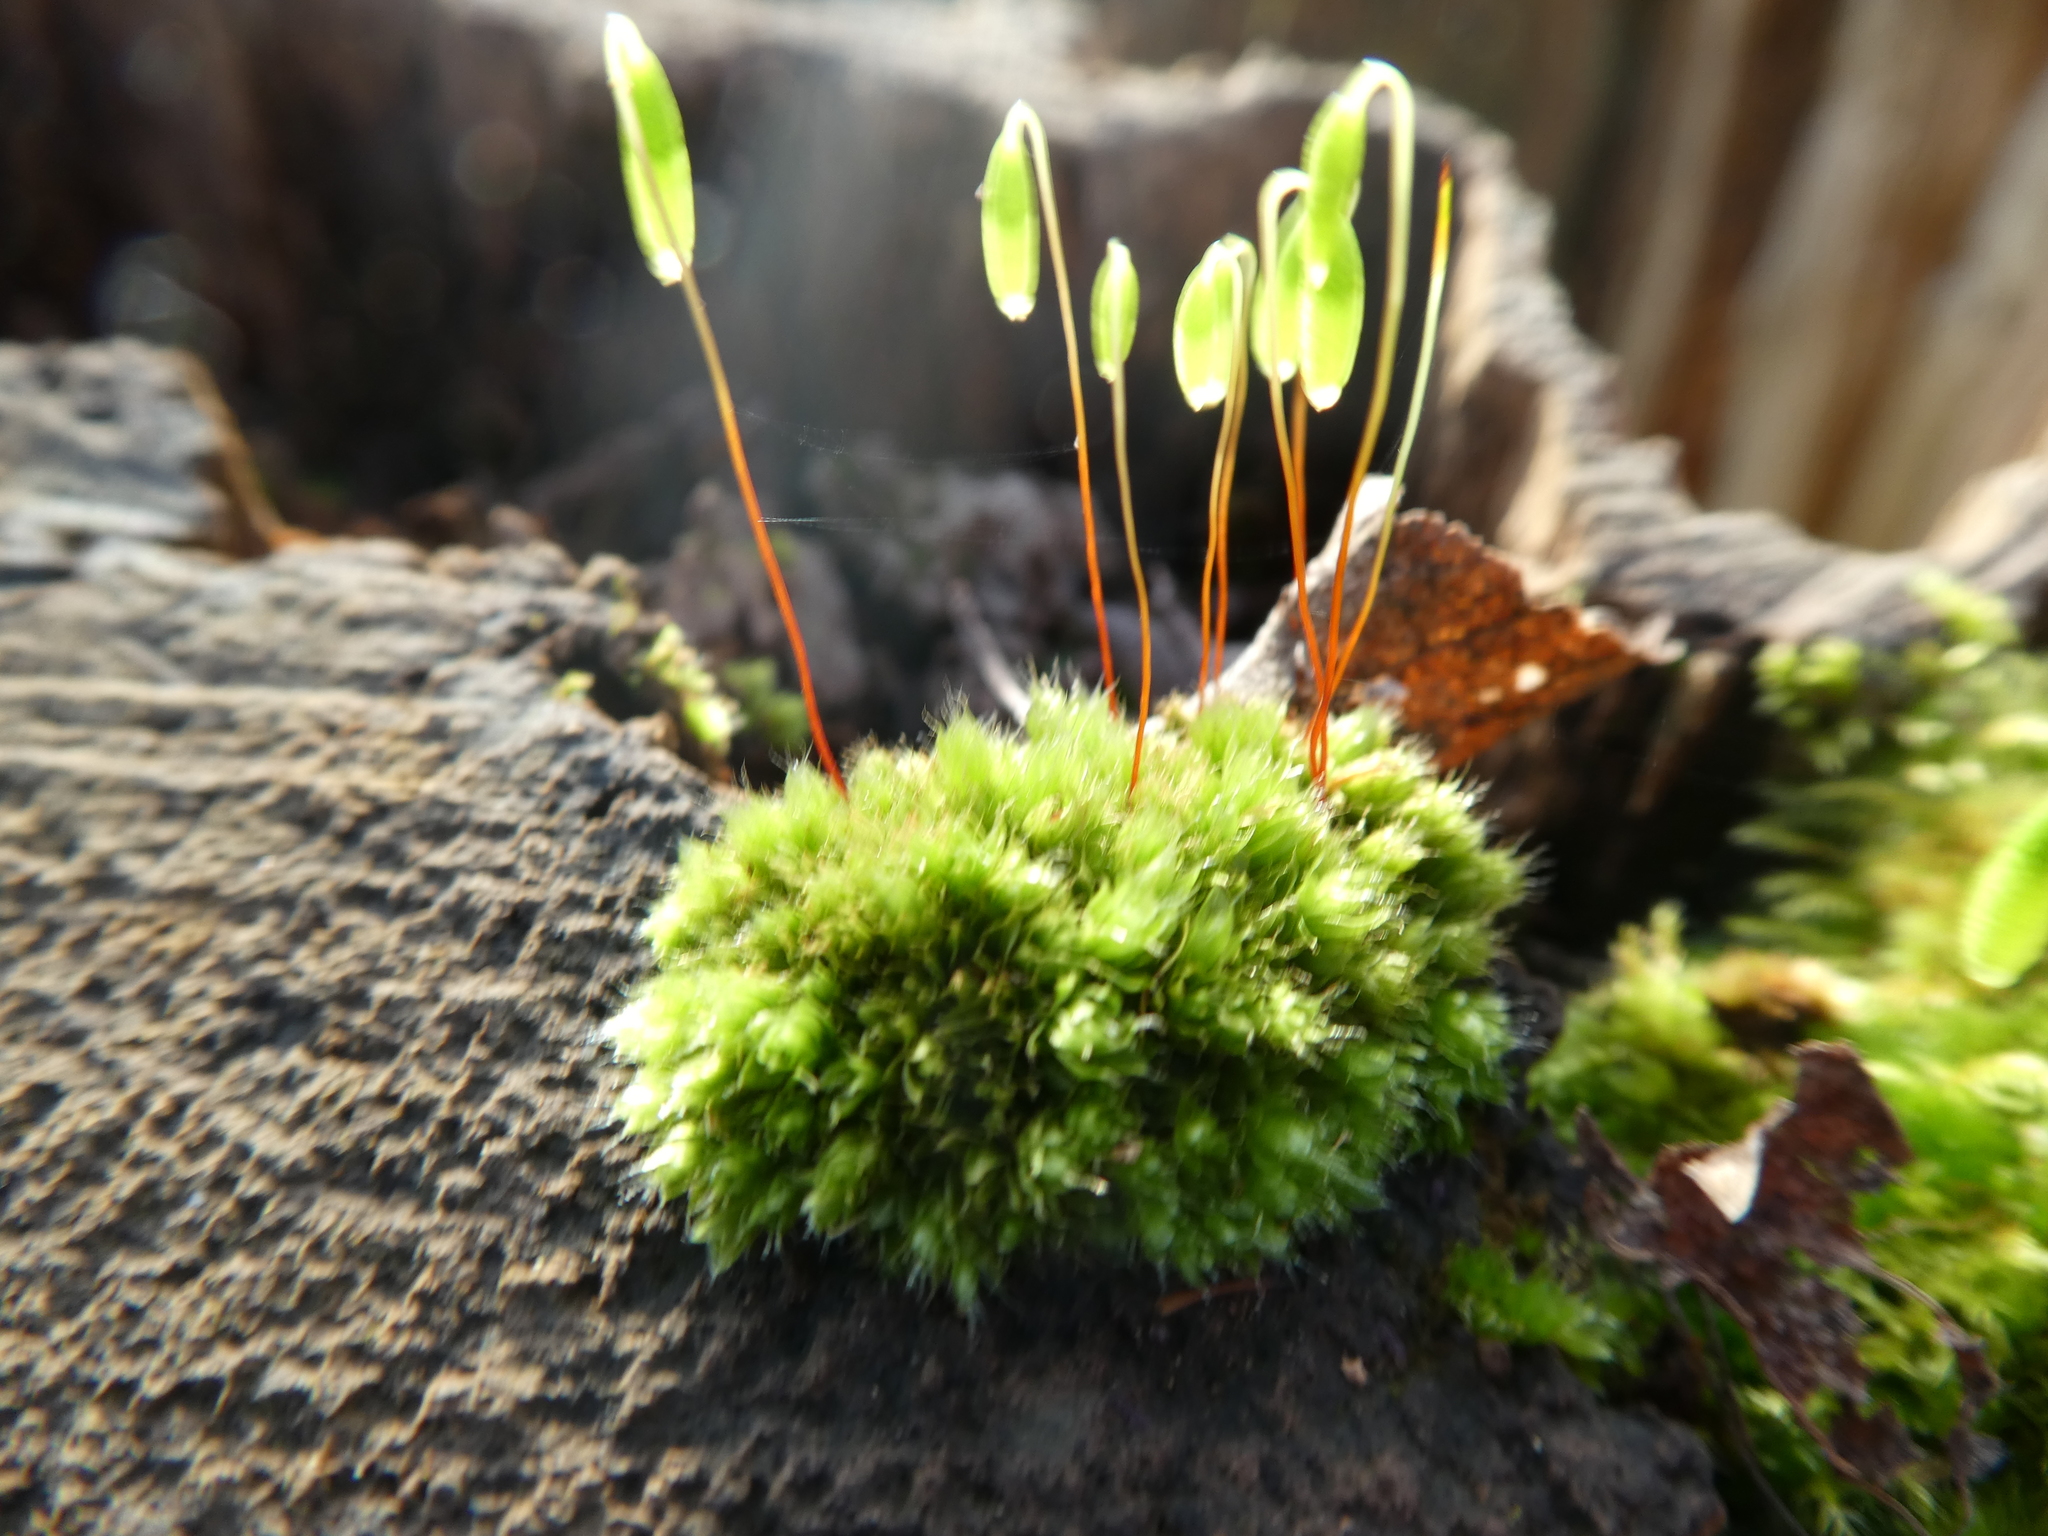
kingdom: Plantae
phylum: Bryophyta
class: Bryopsida
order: Bryales
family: Bryaceae
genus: Rosulabryum
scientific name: Rosulabryum capillare
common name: Capillary thread-moss
